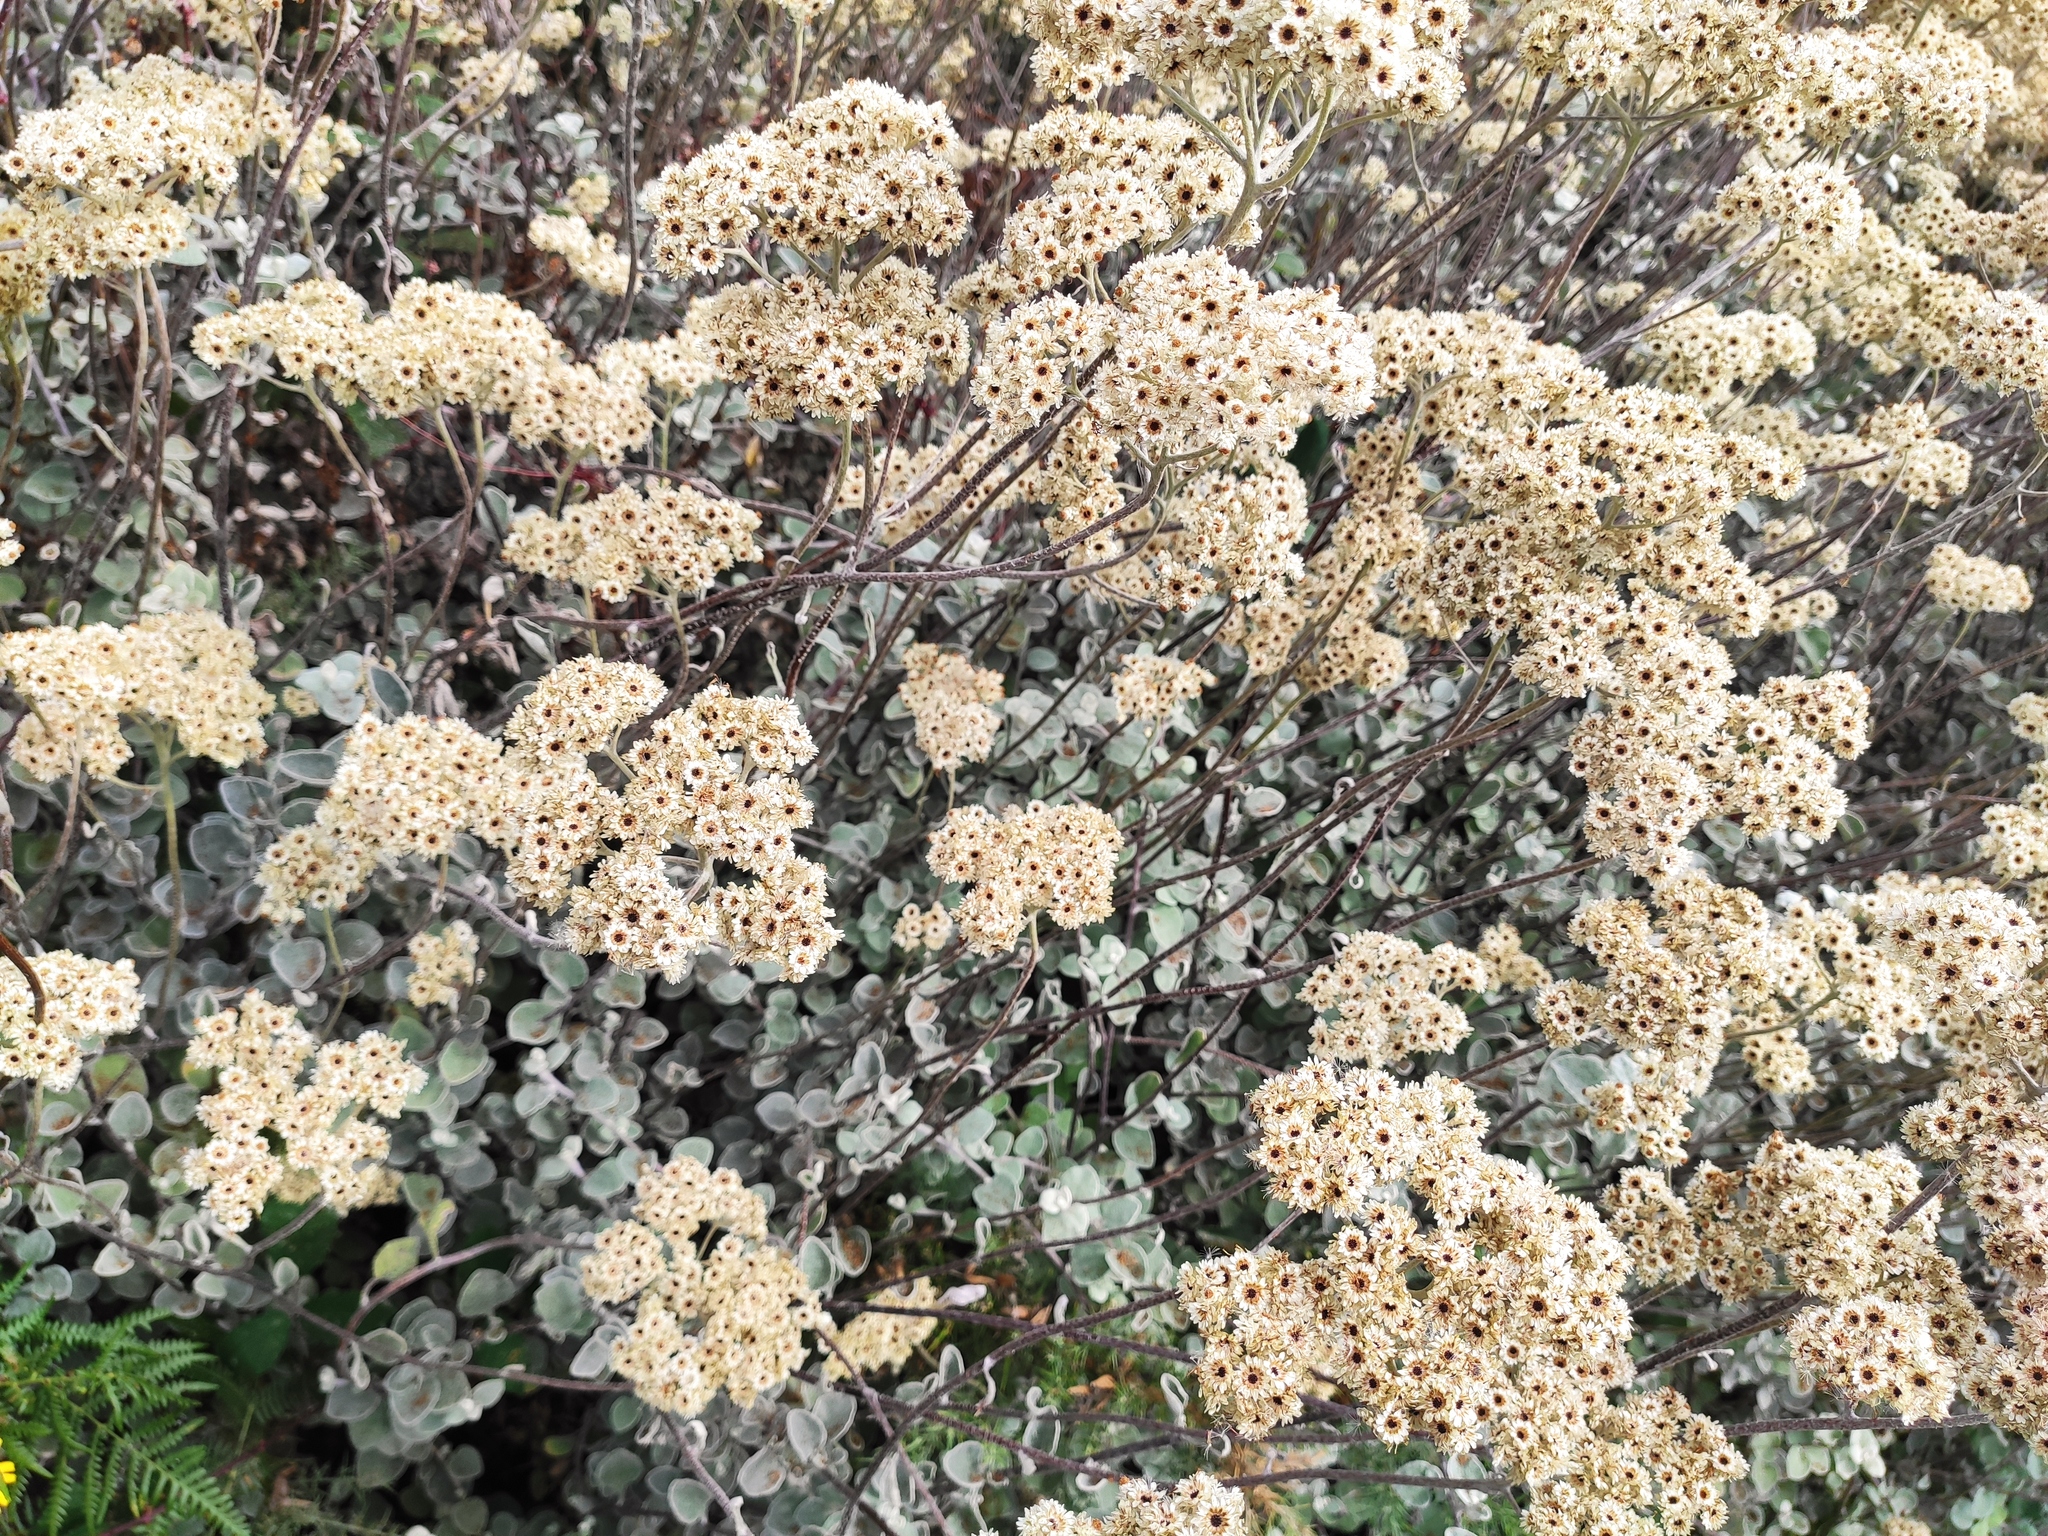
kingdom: Plantae
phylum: Tracheophyta
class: Magnoliopsida
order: Asterales
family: Asteraceae
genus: Helichrysum
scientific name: Helichrysum petiolare
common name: Licorice-plant
